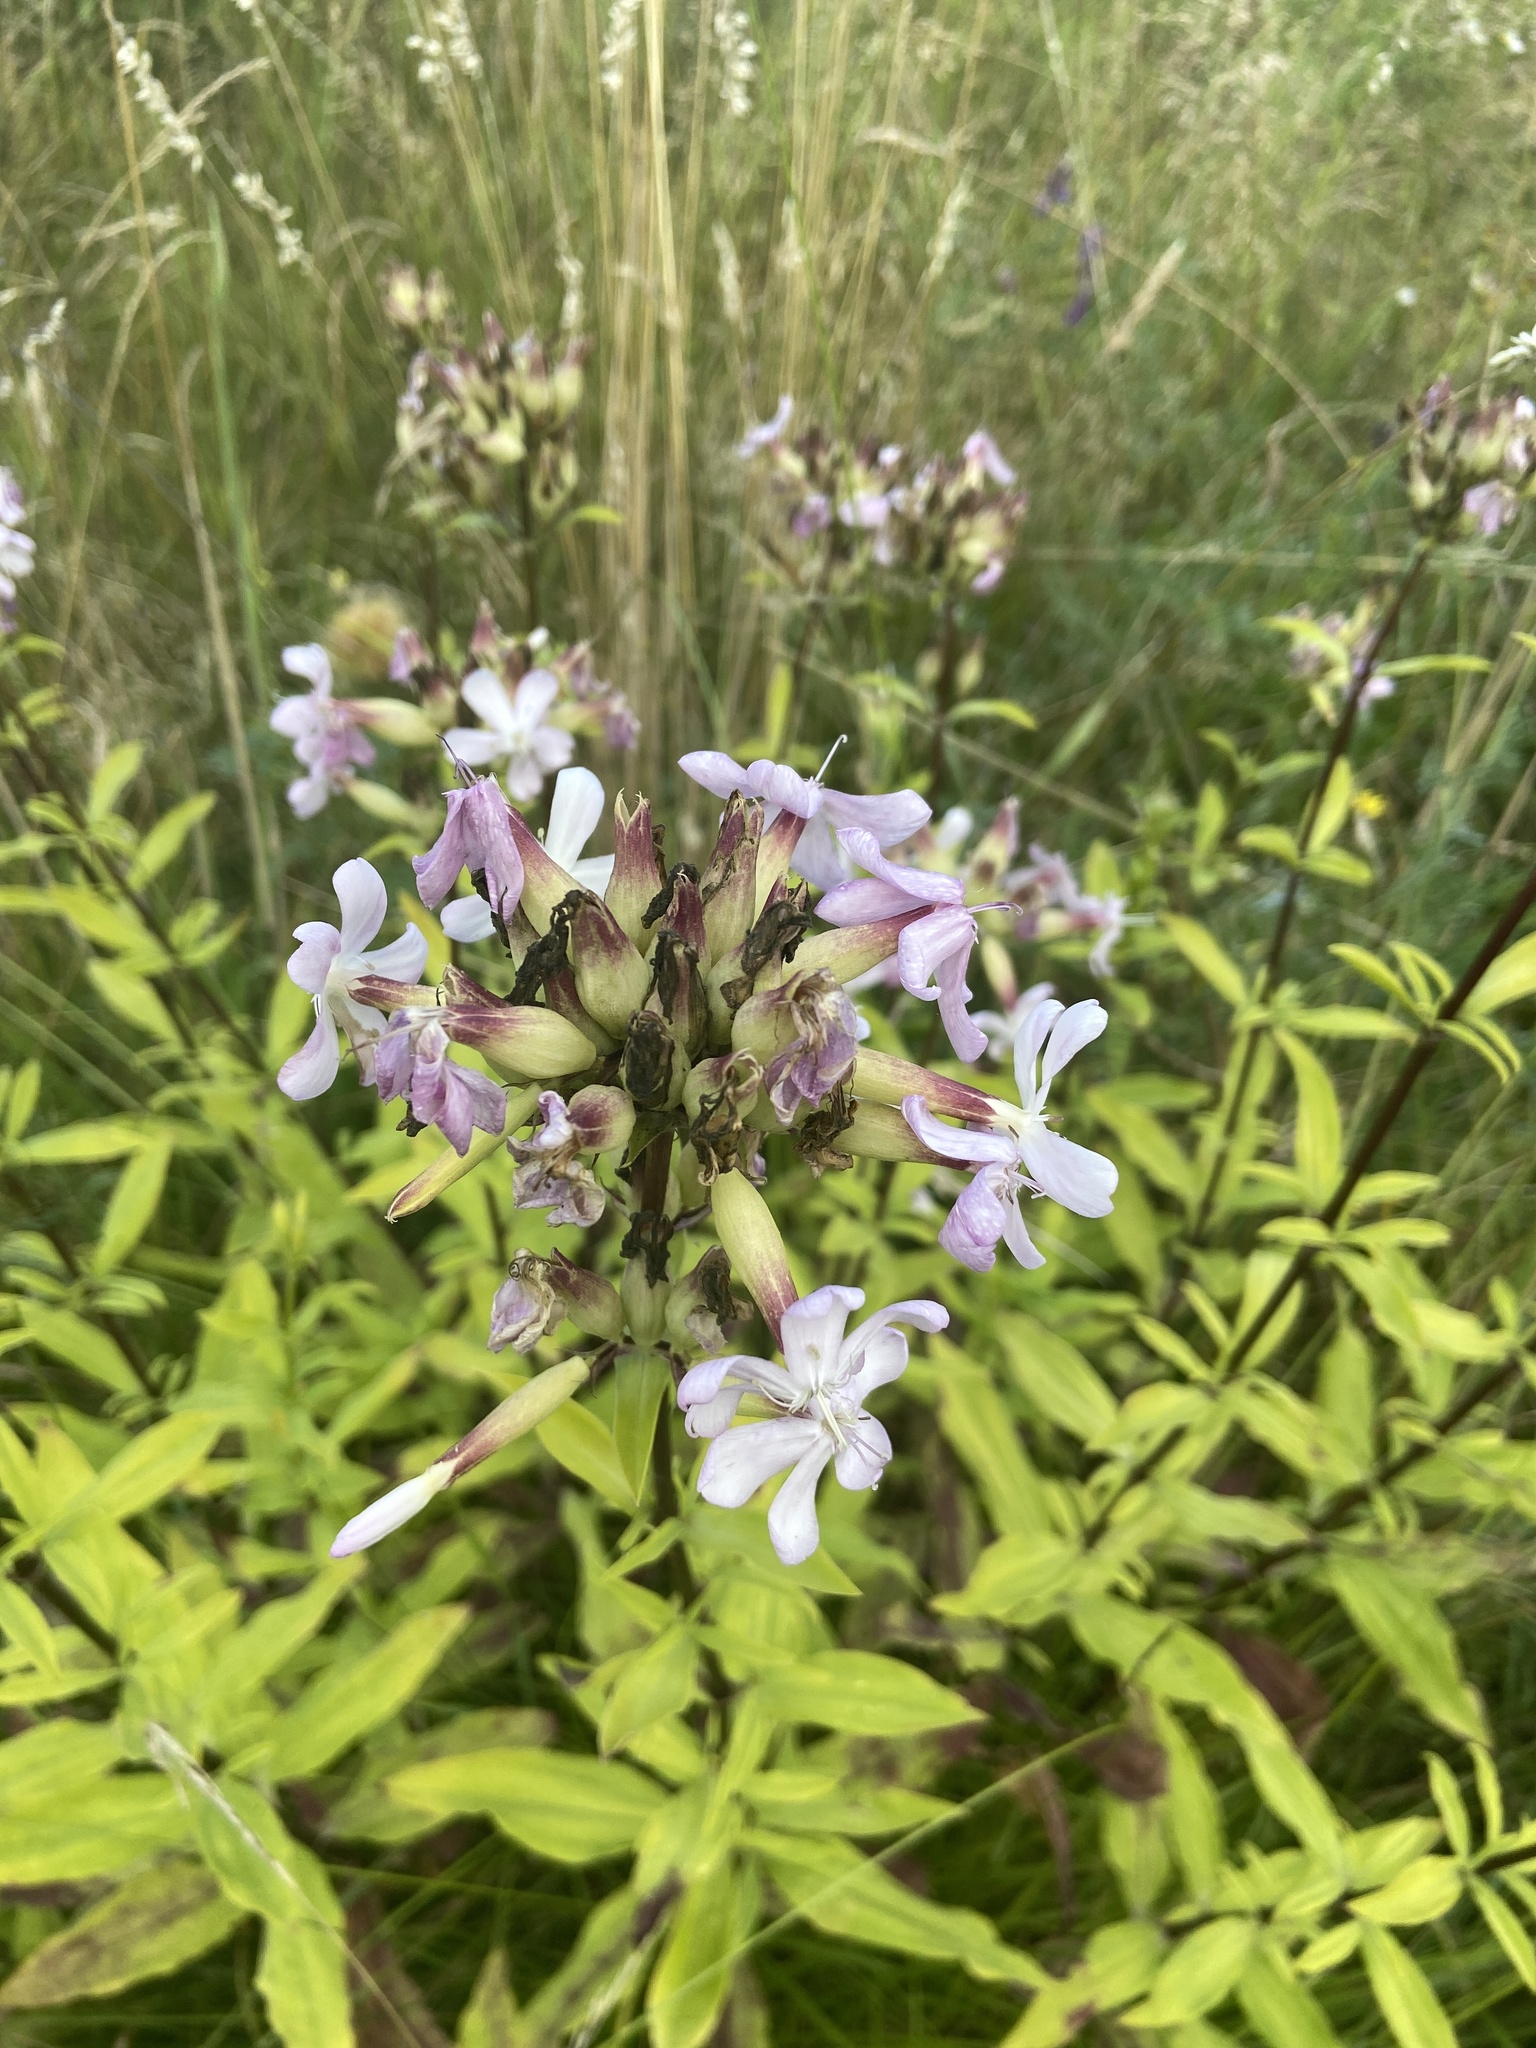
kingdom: Plantae
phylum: Tracheophyta
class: Magnoliopsida
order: Caryophyllales
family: Caryophyllaceae
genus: Saponaria
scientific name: Saponaria officinalis
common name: Soapwort
